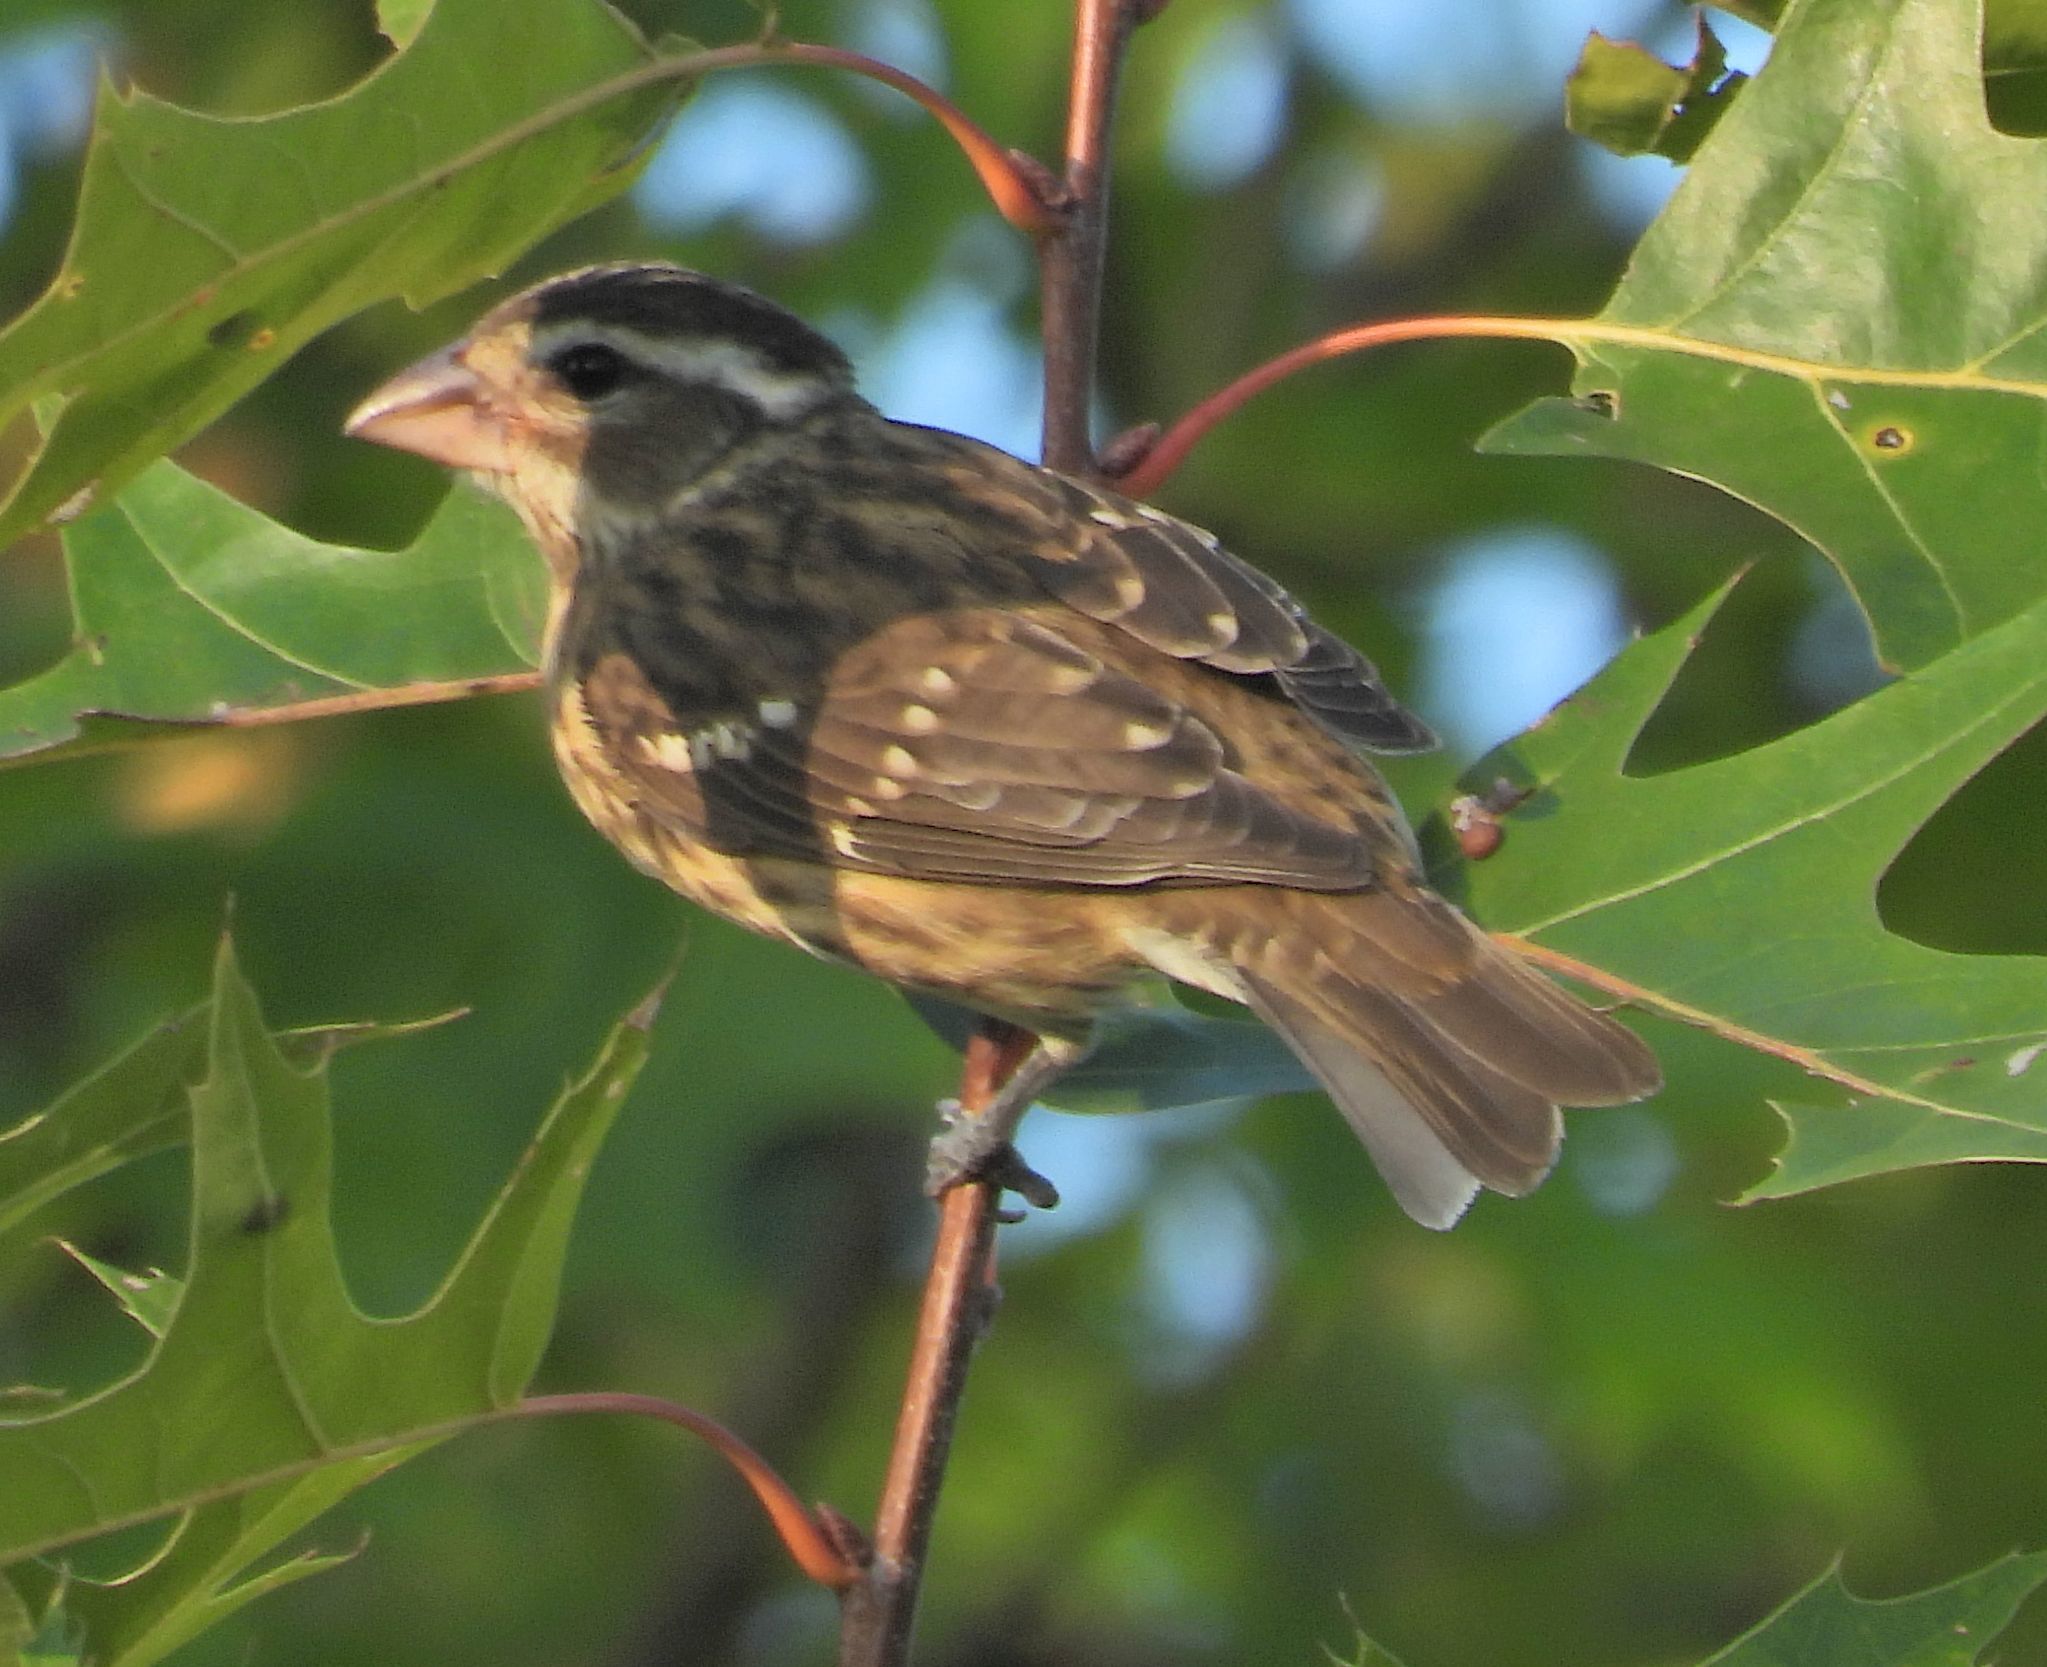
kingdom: Animalia
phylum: Chordata
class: Aves
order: Passeriformes
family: Cardinalidae
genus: Pheucticus
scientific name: Pheucticus ludovicianus
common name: Rose-breasted grosbeak
